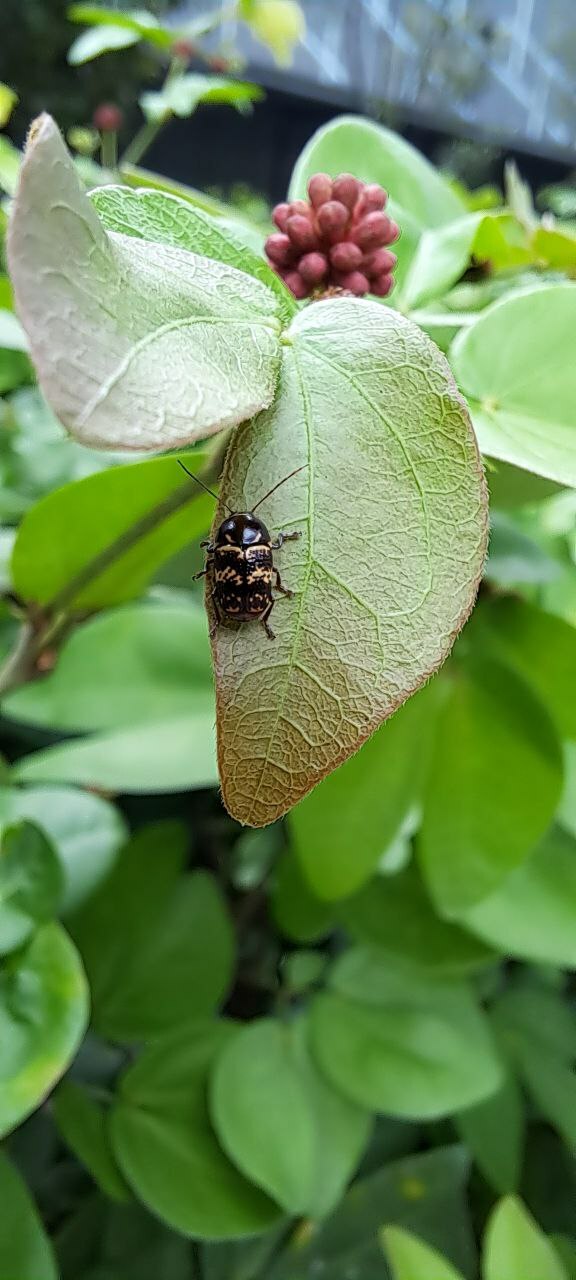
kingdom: Animalia
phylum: Arthropoda
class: Insecta
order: Coleoptera
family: Chrysomelidae
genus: Cryptocephalus
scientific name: Cryptocephalus irroratus
